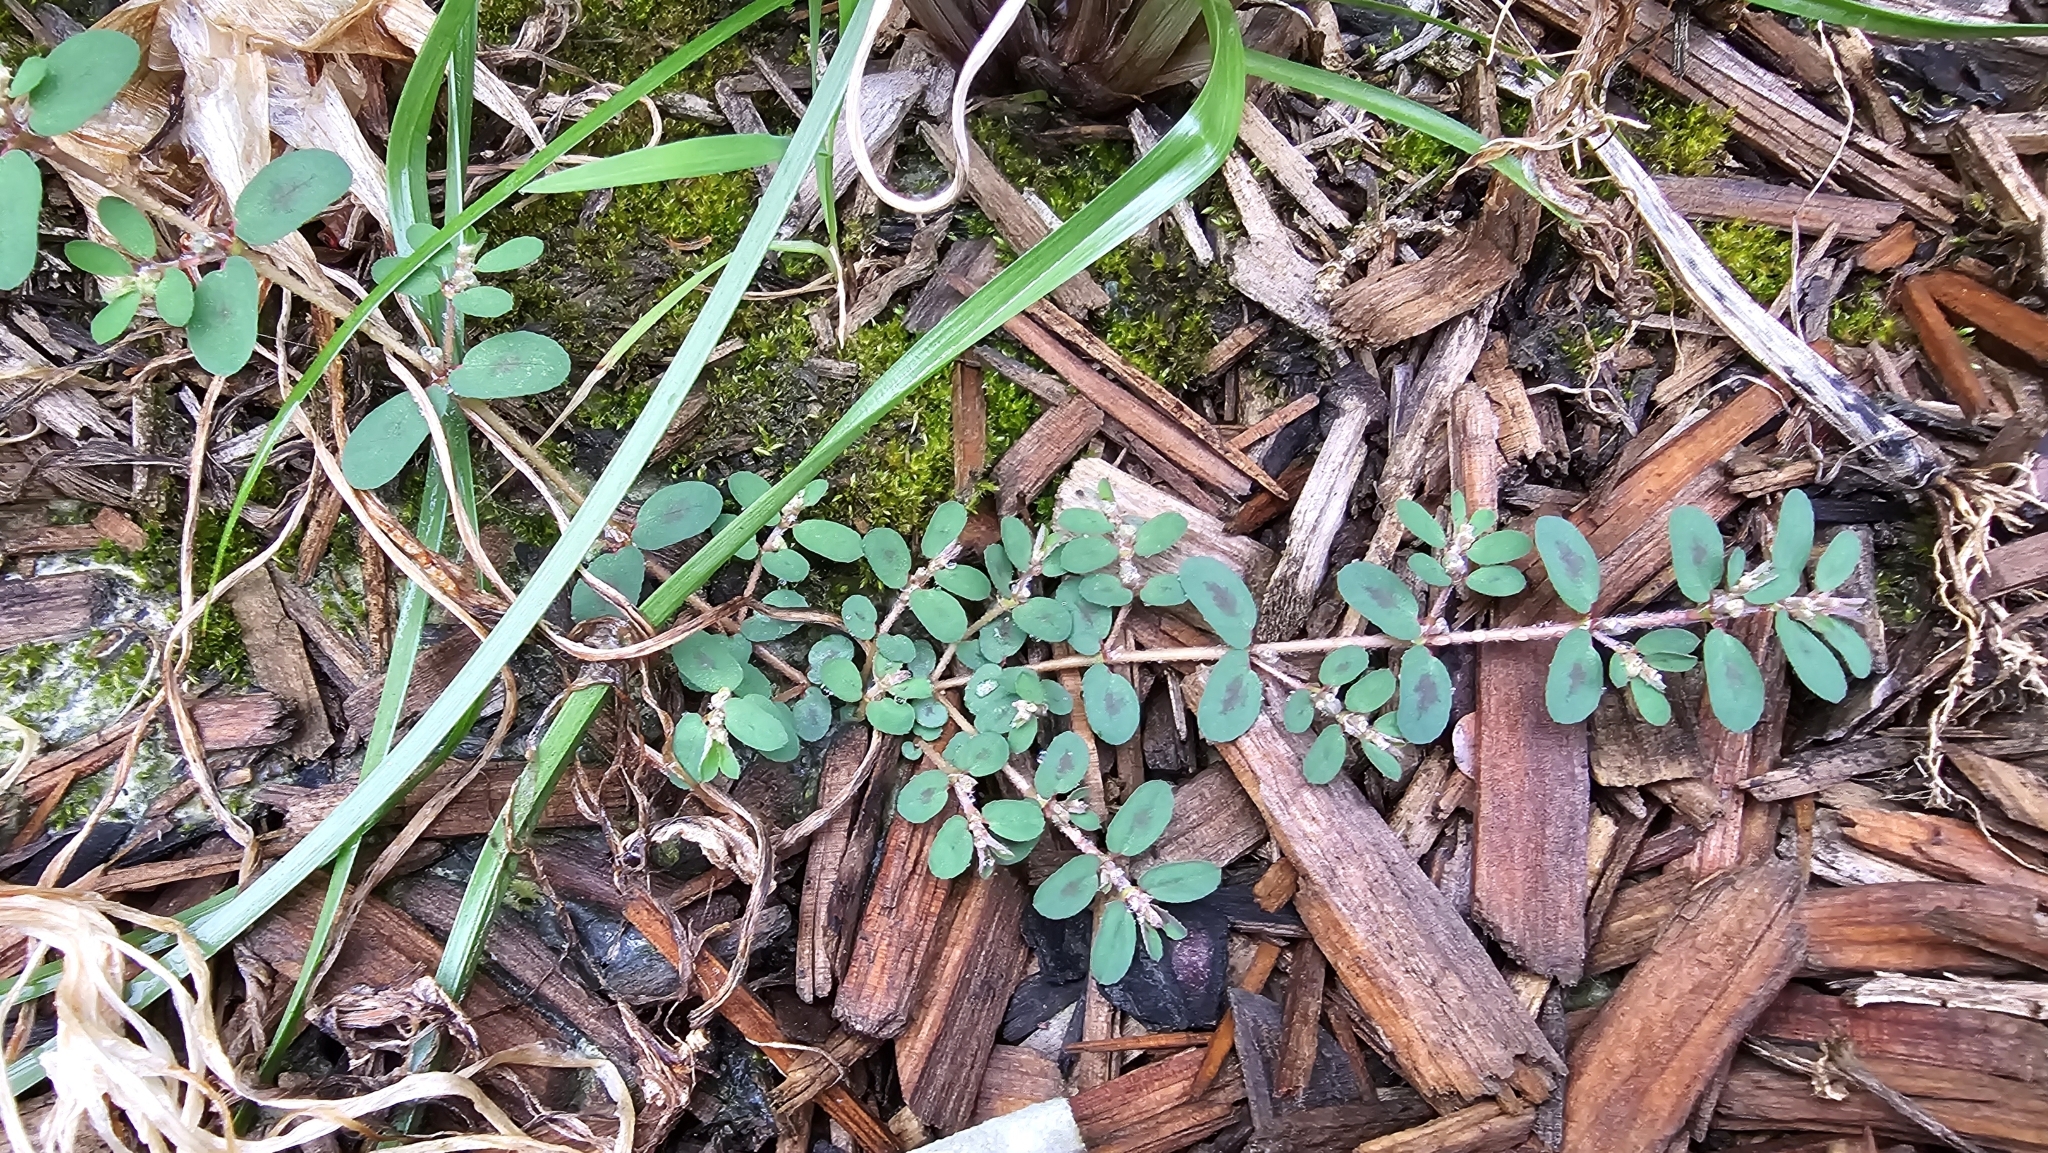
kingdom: Plantae
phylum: Tracheophyta
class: Magnoliopsida
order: Malpighiales
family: Euphorbiaceae
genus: Euphorbia
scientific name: Euphorbia maculata
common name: Spotted spurge
